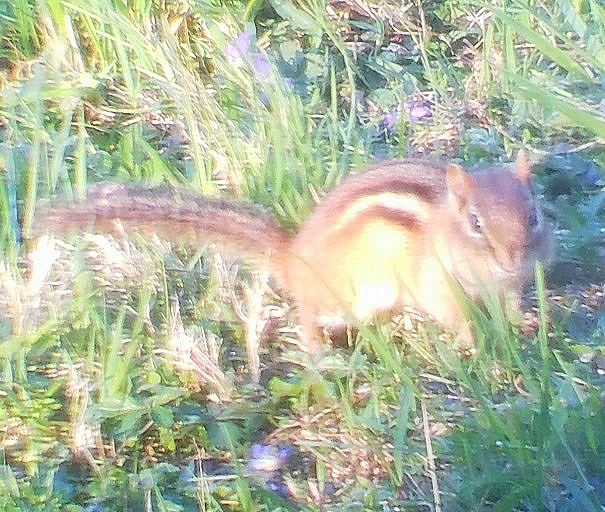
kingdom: Animalia
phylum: Chordata
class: Mammalia
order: Rodentia
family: Sciuridae
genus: Tamias
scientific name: Tamias striatus
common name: Eastern chipmunk
